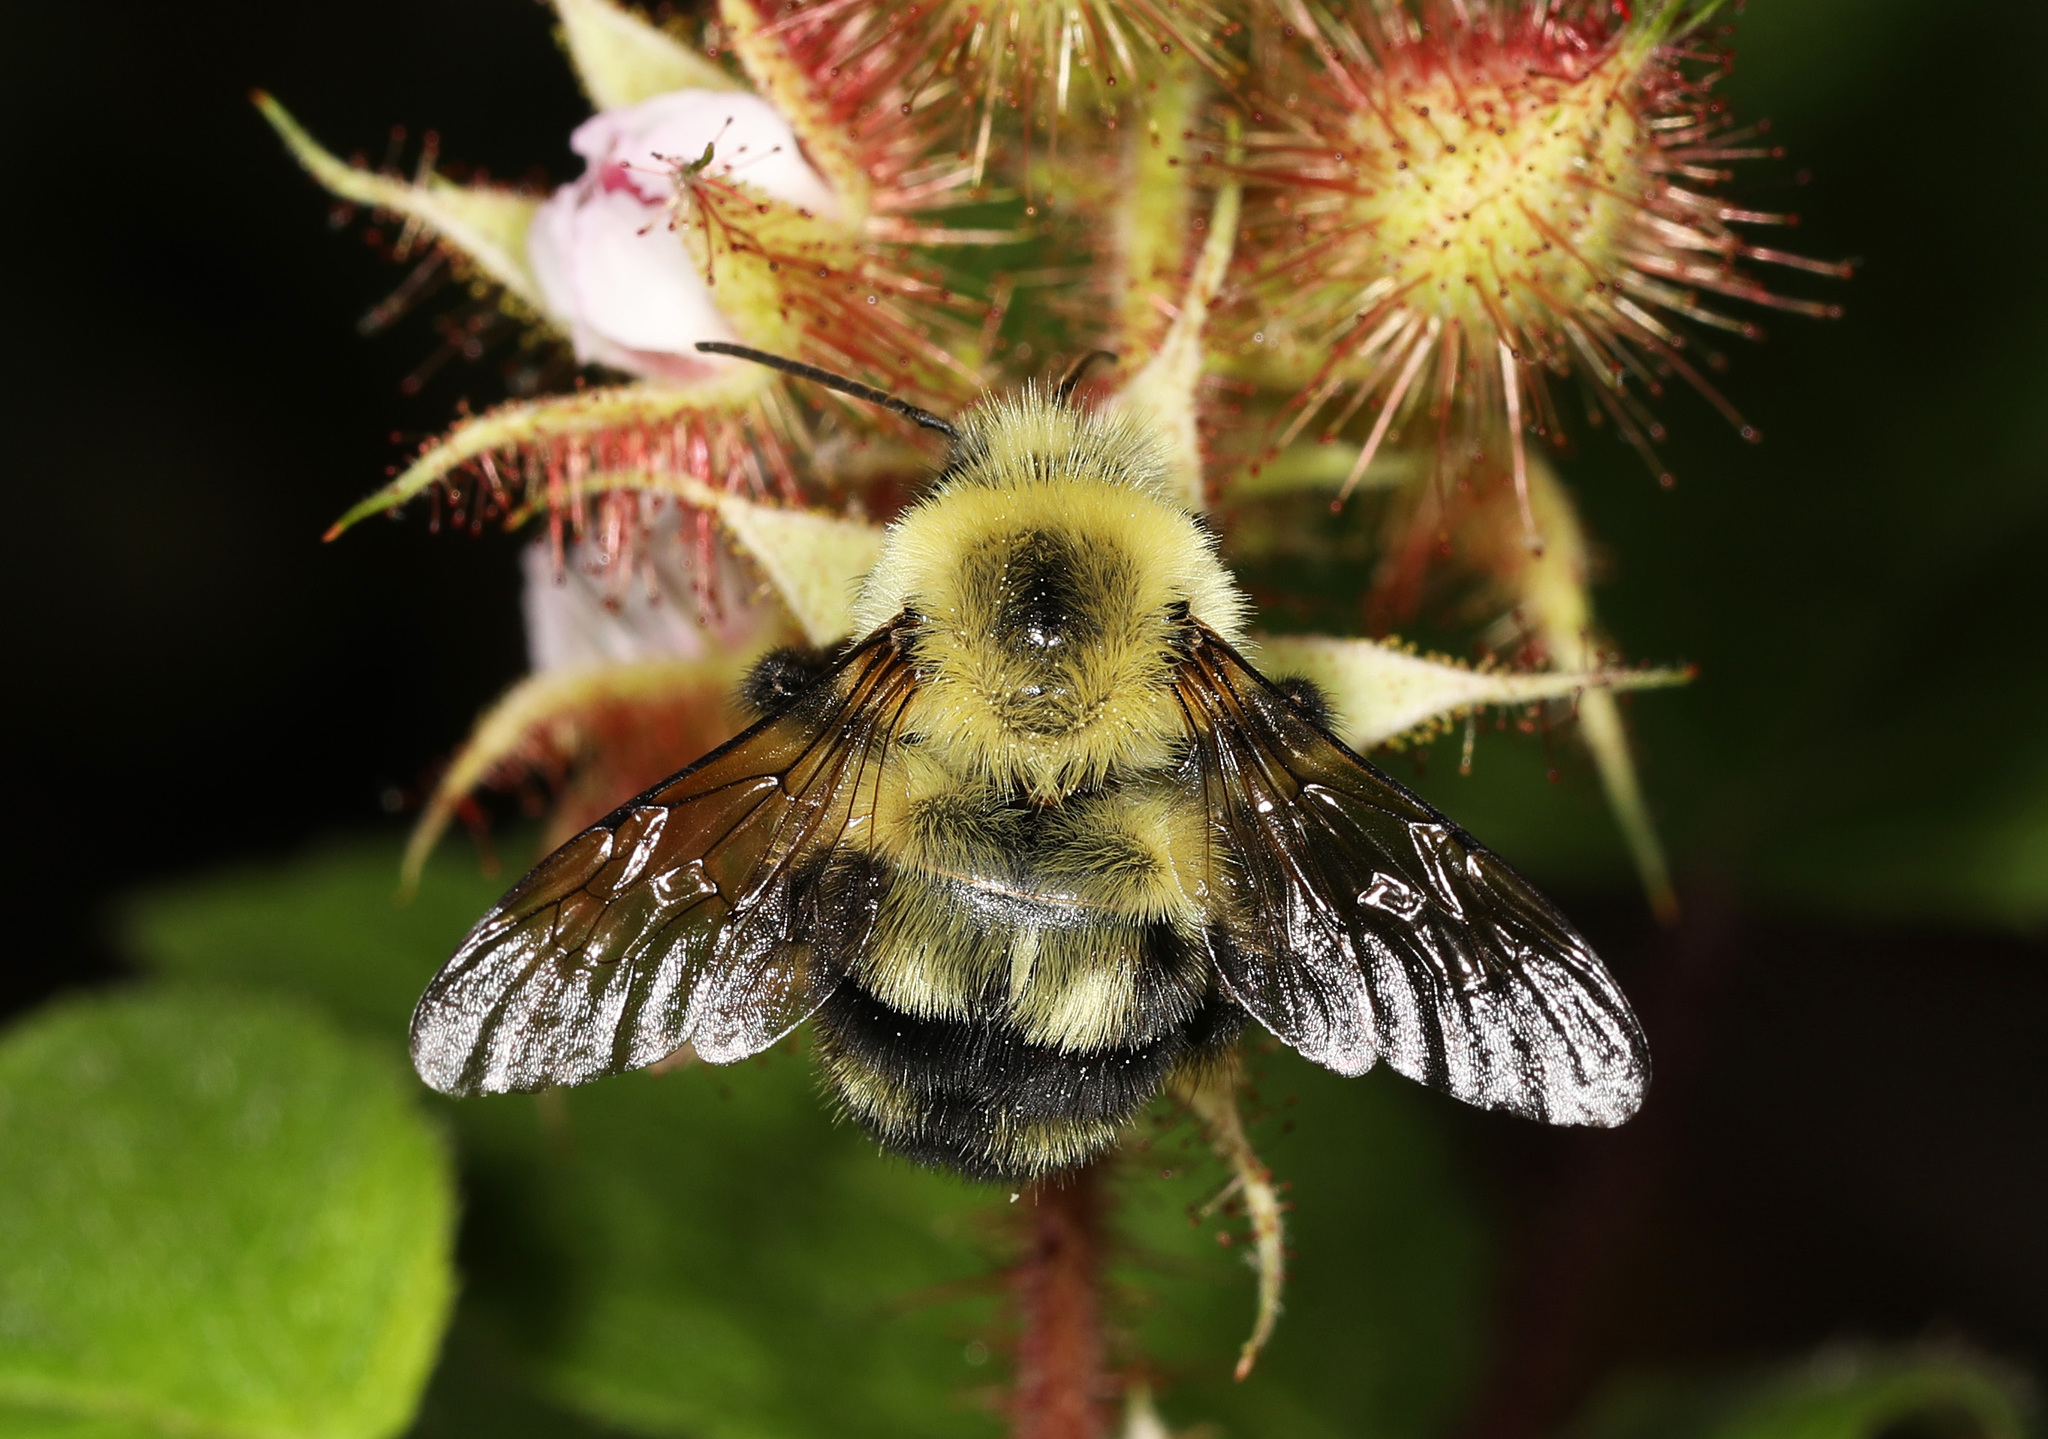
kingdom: Animalia
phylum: Arthropoda
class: Insecta
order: Hymenoptera
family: Apidae
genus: Bombus
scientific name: Bombus bimaculatus
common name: Two-spotted bumble bee
